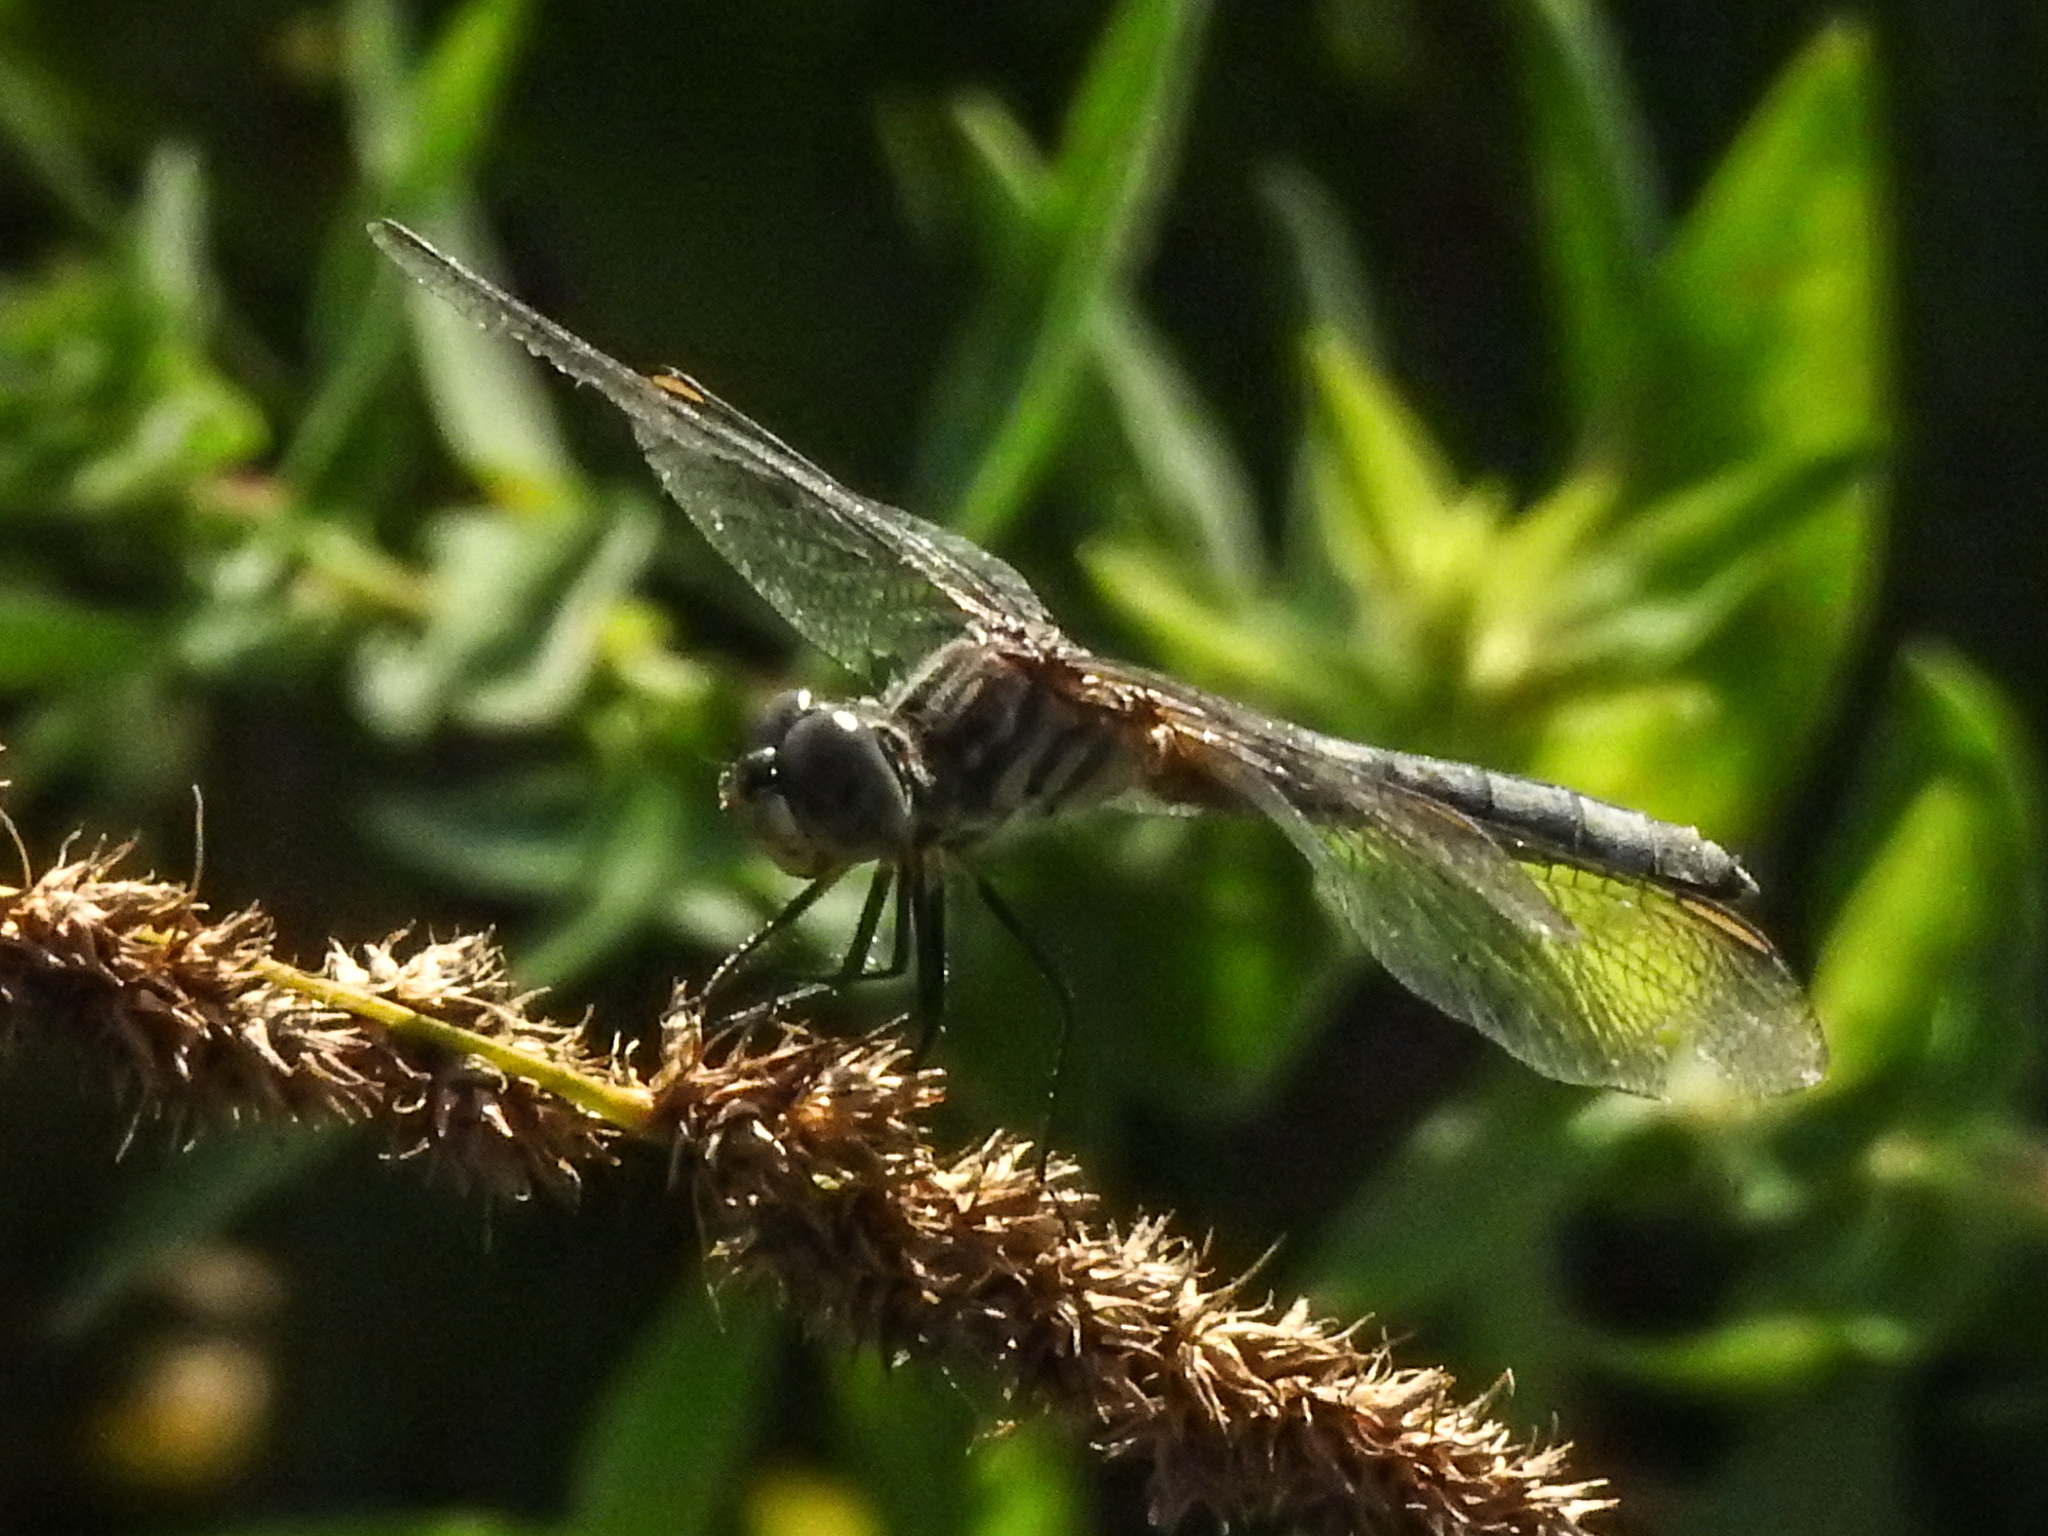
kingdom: Animalia
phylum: Arthropoda
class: Insecta
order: Odonata
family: Libellulidae
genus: Pachydiplax
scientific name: Pachydiplax longipennis
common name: Blue dasher
